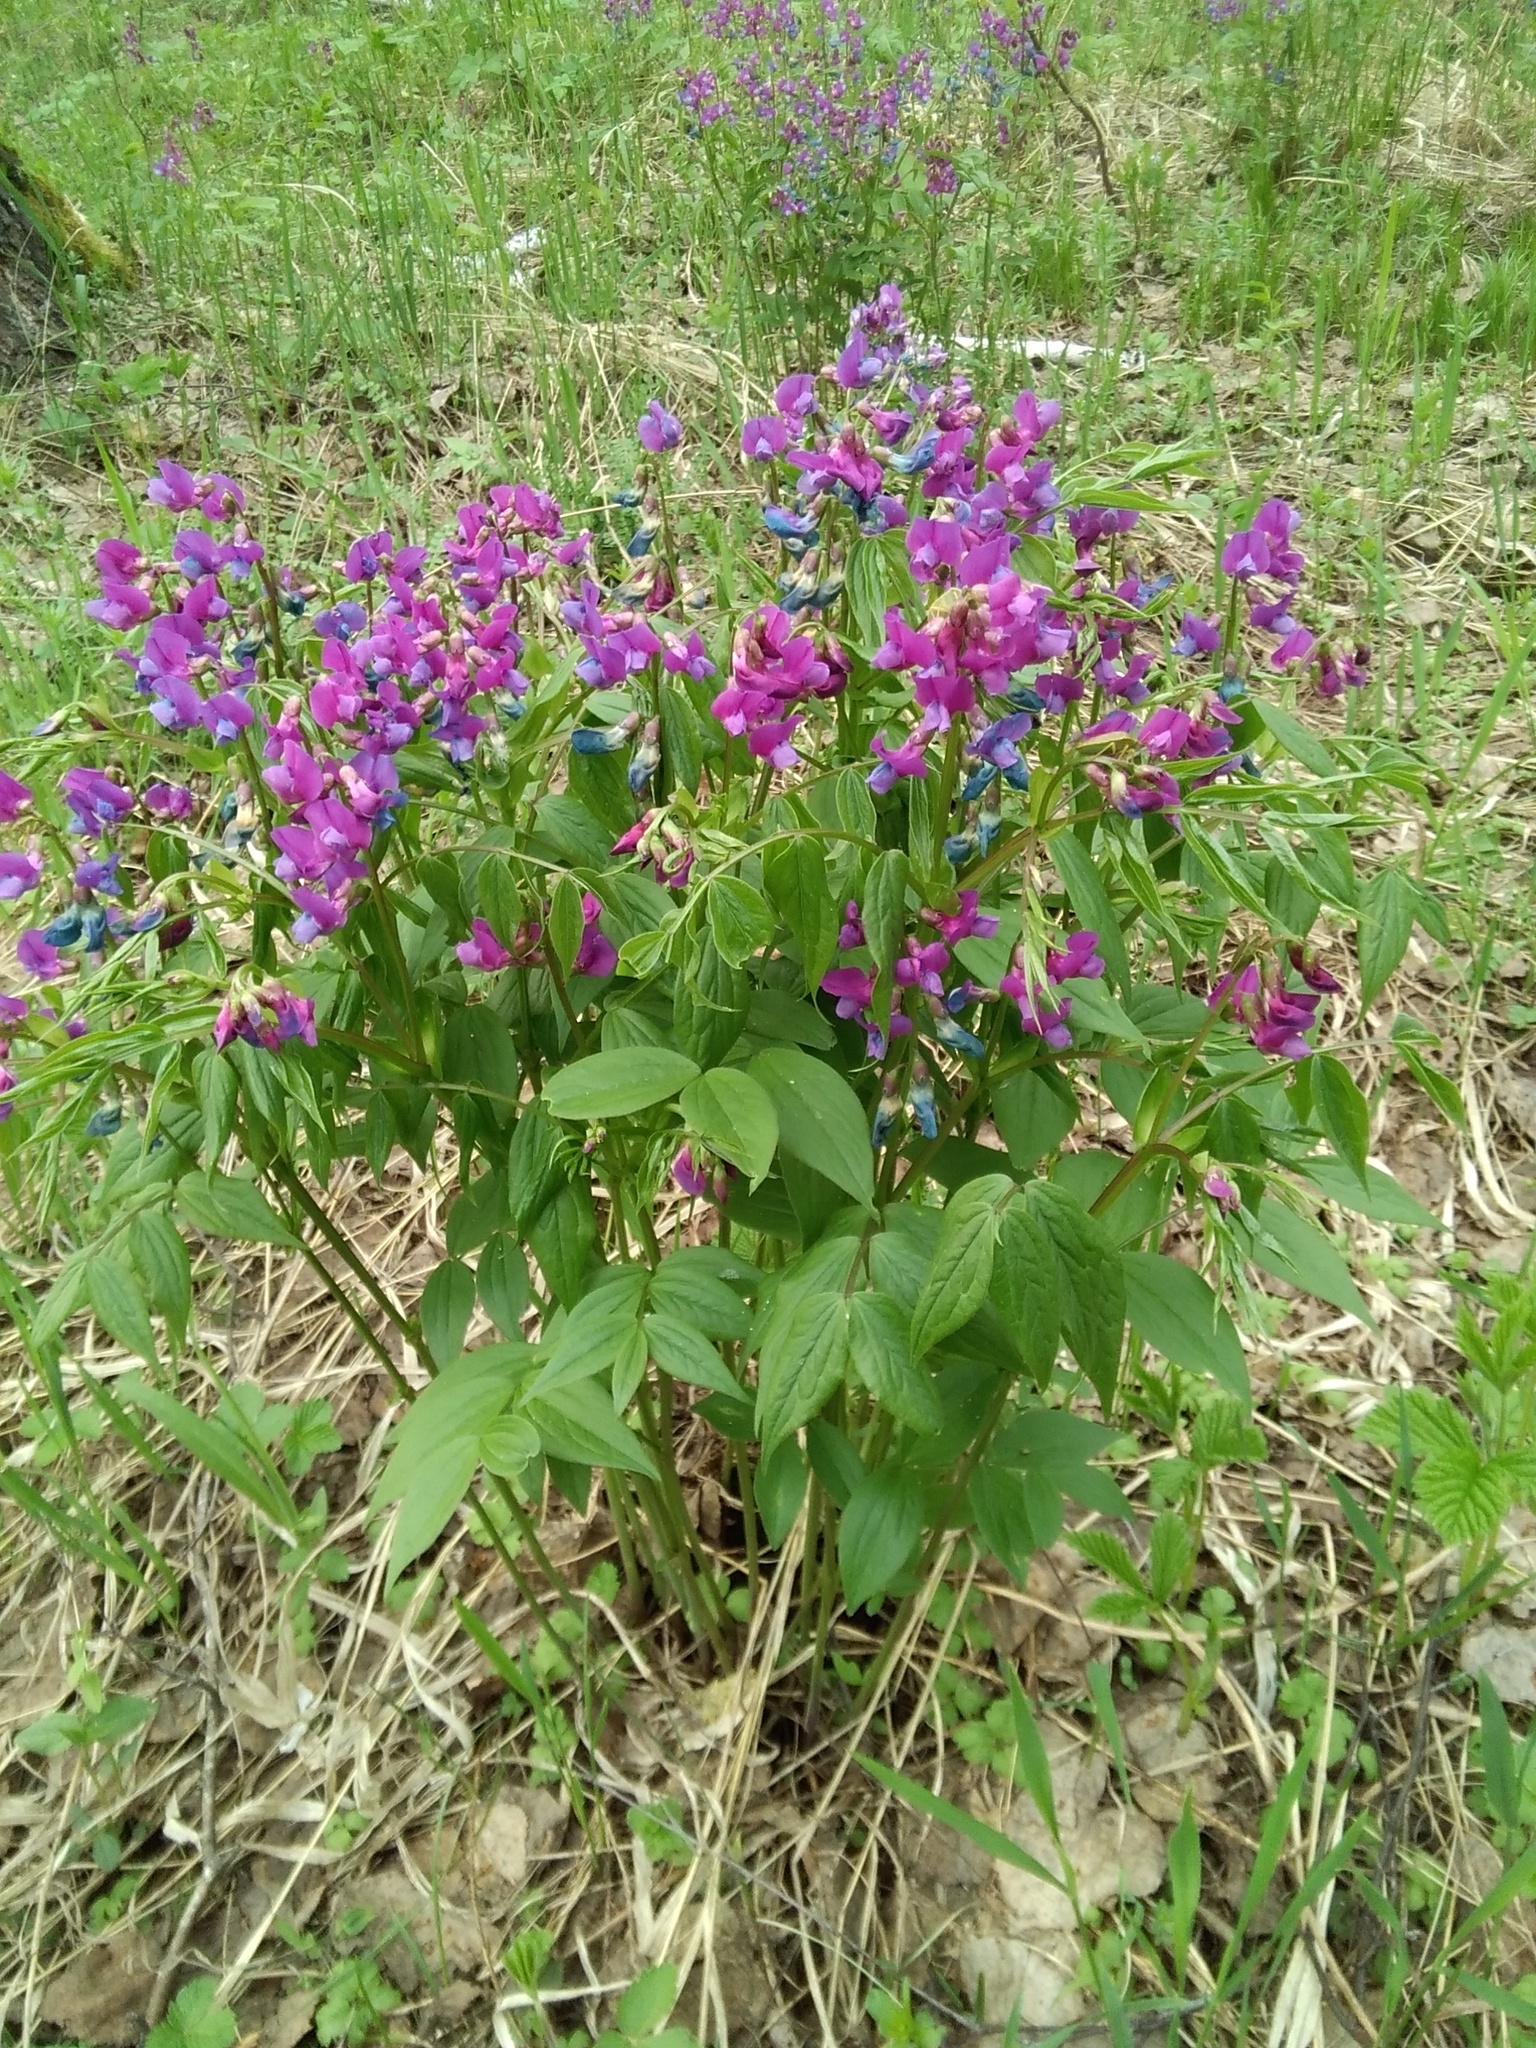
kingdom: Plantae
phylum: Tracheophyta
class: Magnoliopsida
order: Fabales
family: Fabaceae
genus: Lathyrus
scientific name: Lathyrus vernus
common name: Spring pea
